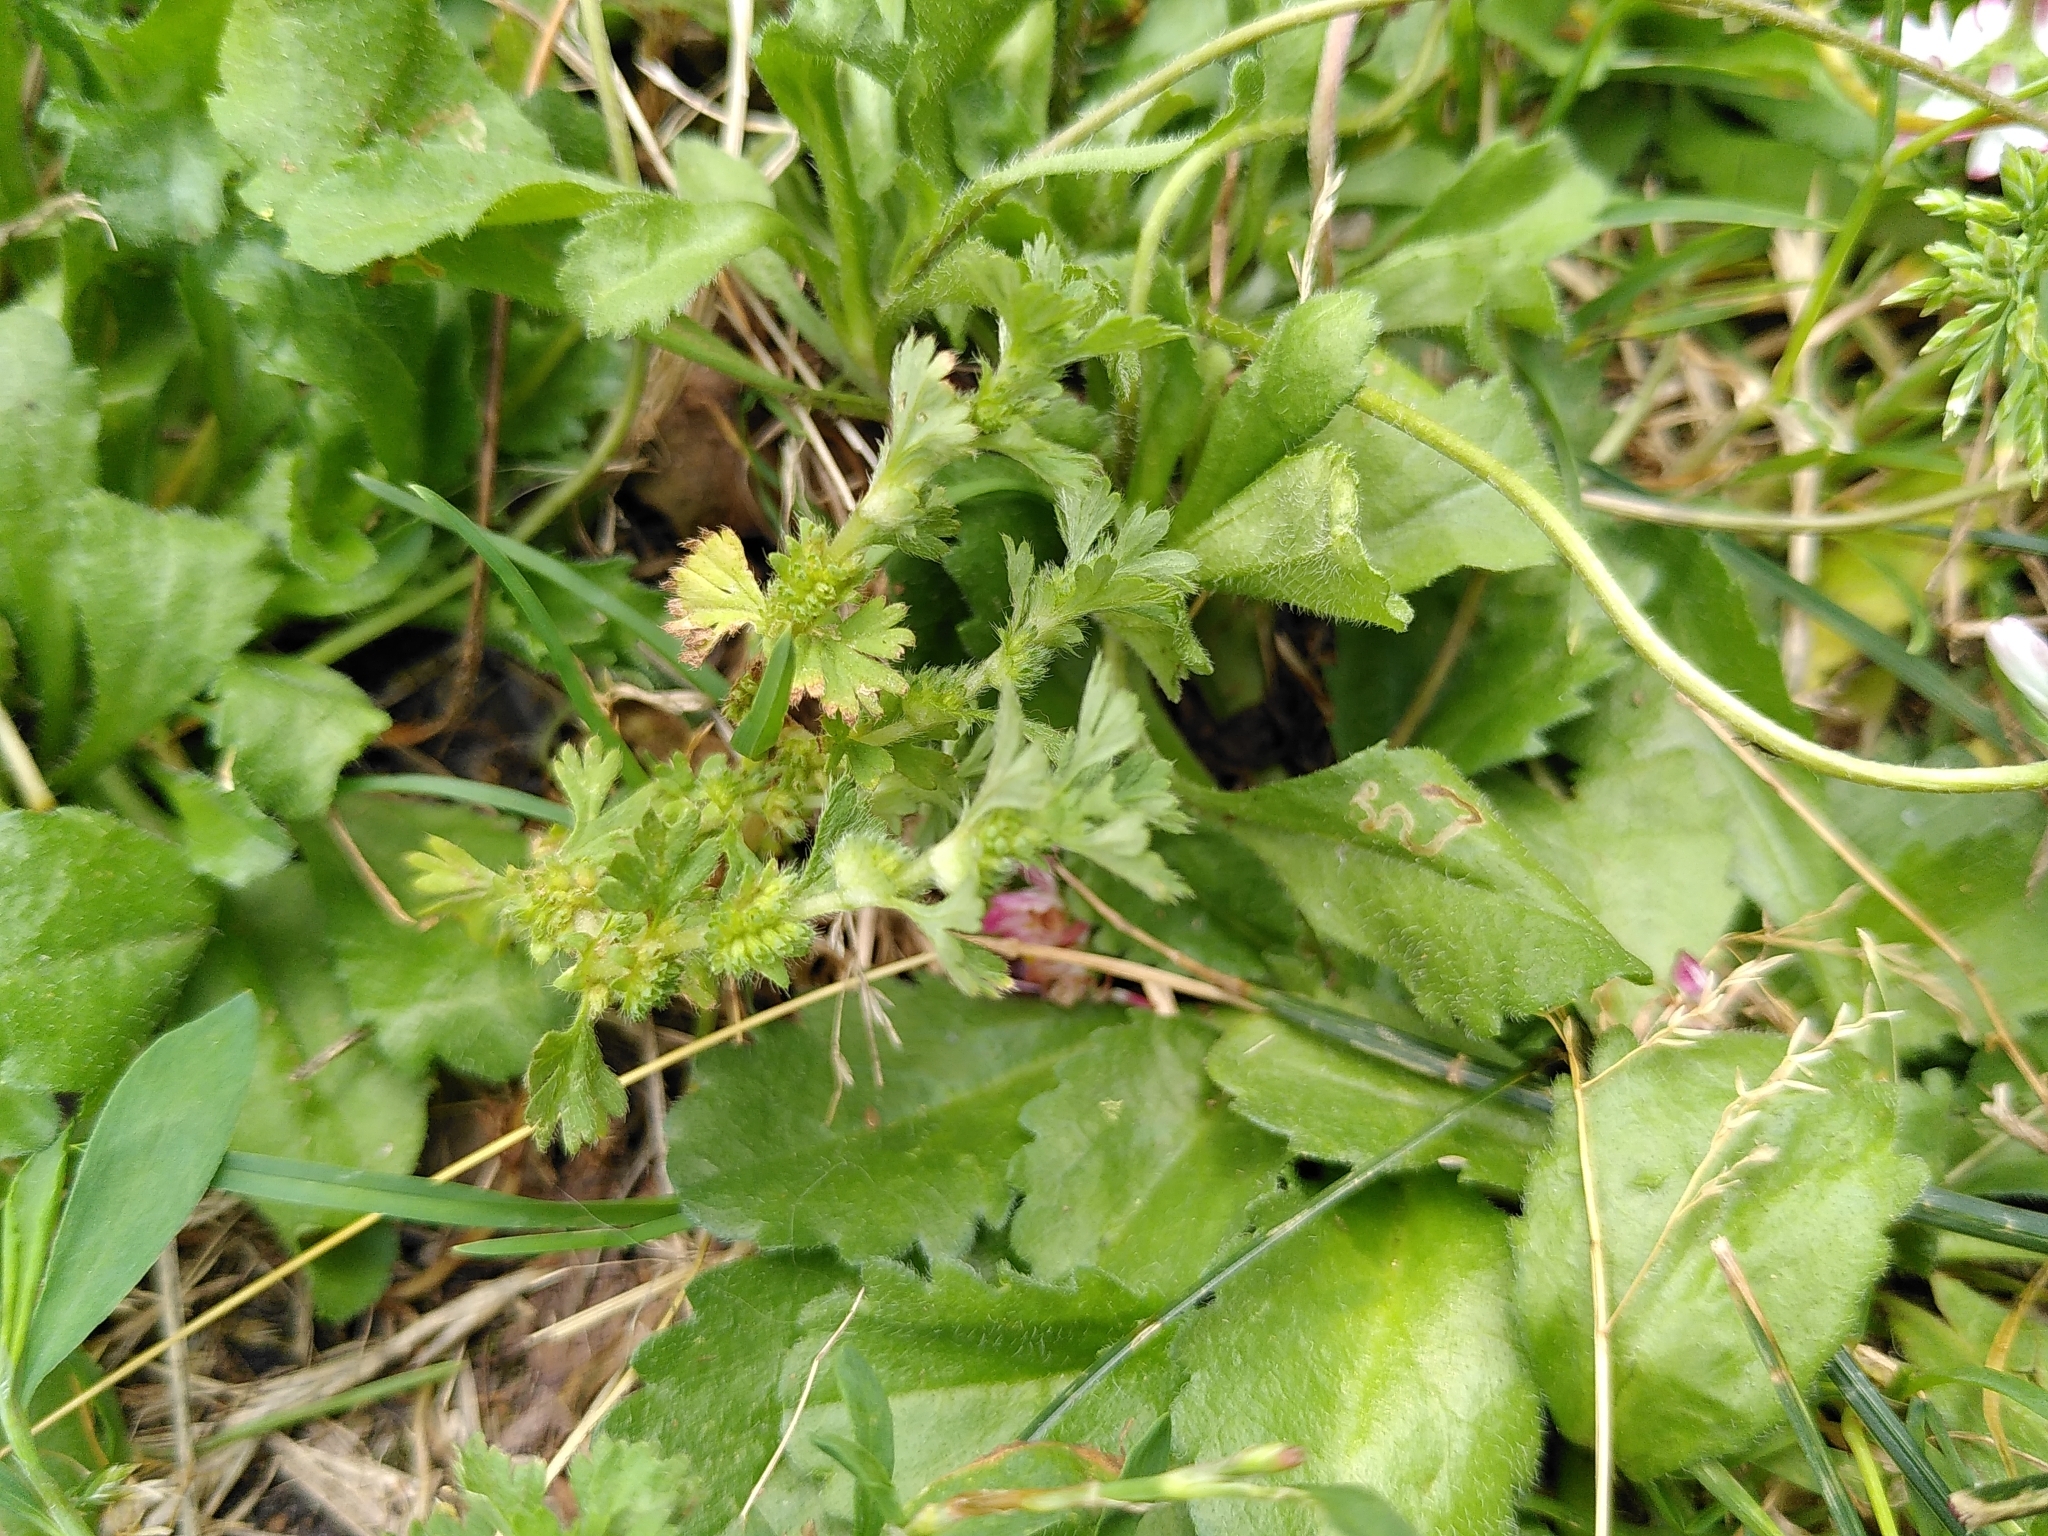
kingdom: Plantae
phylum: Tracheophyta
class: Magnoliopsida
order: Rosales
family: Rosaceae
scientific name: Rosaceae
